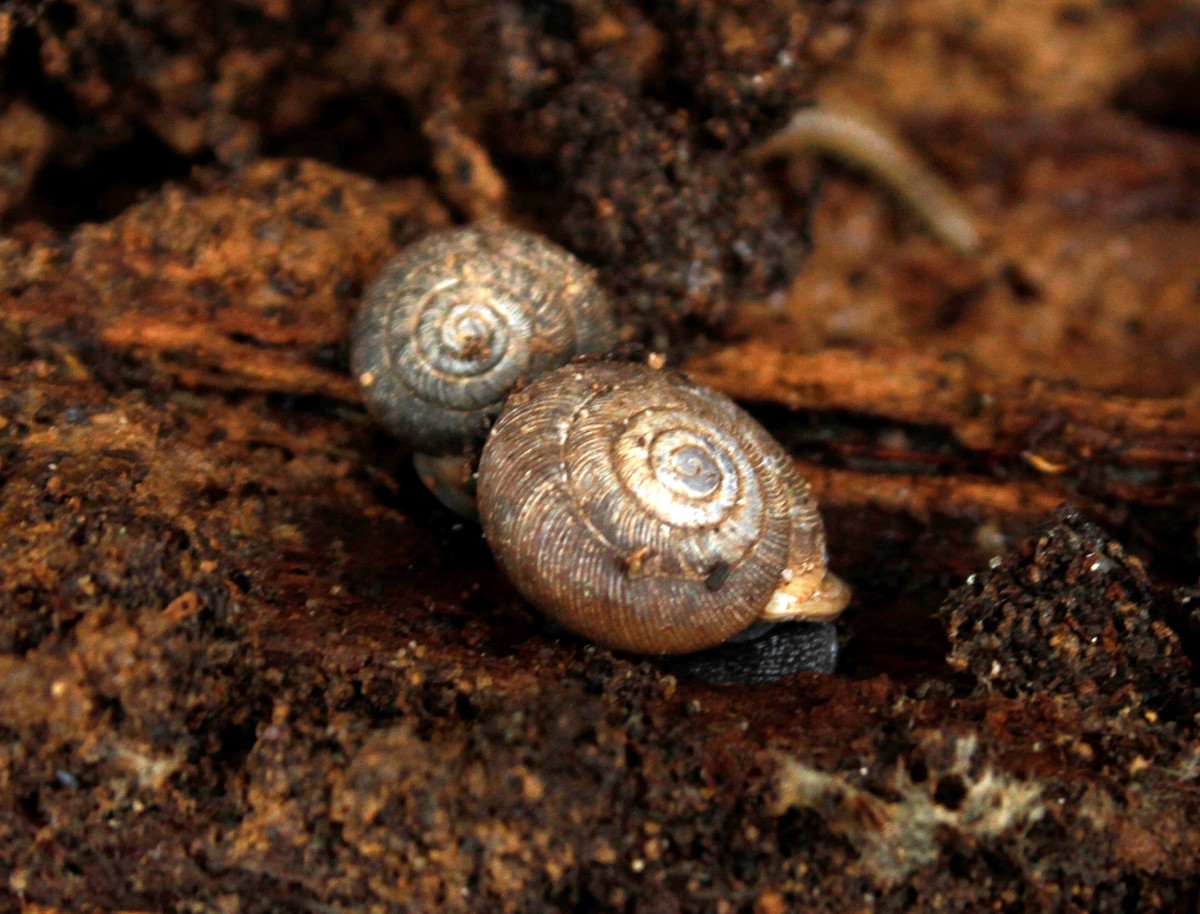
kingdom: Animalia
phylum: Mollusca
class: Gastropoda
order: Stylommatophora
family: Discidae
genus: Anguispira
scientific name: Anguispira alternata
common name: Flamed tigersnail
